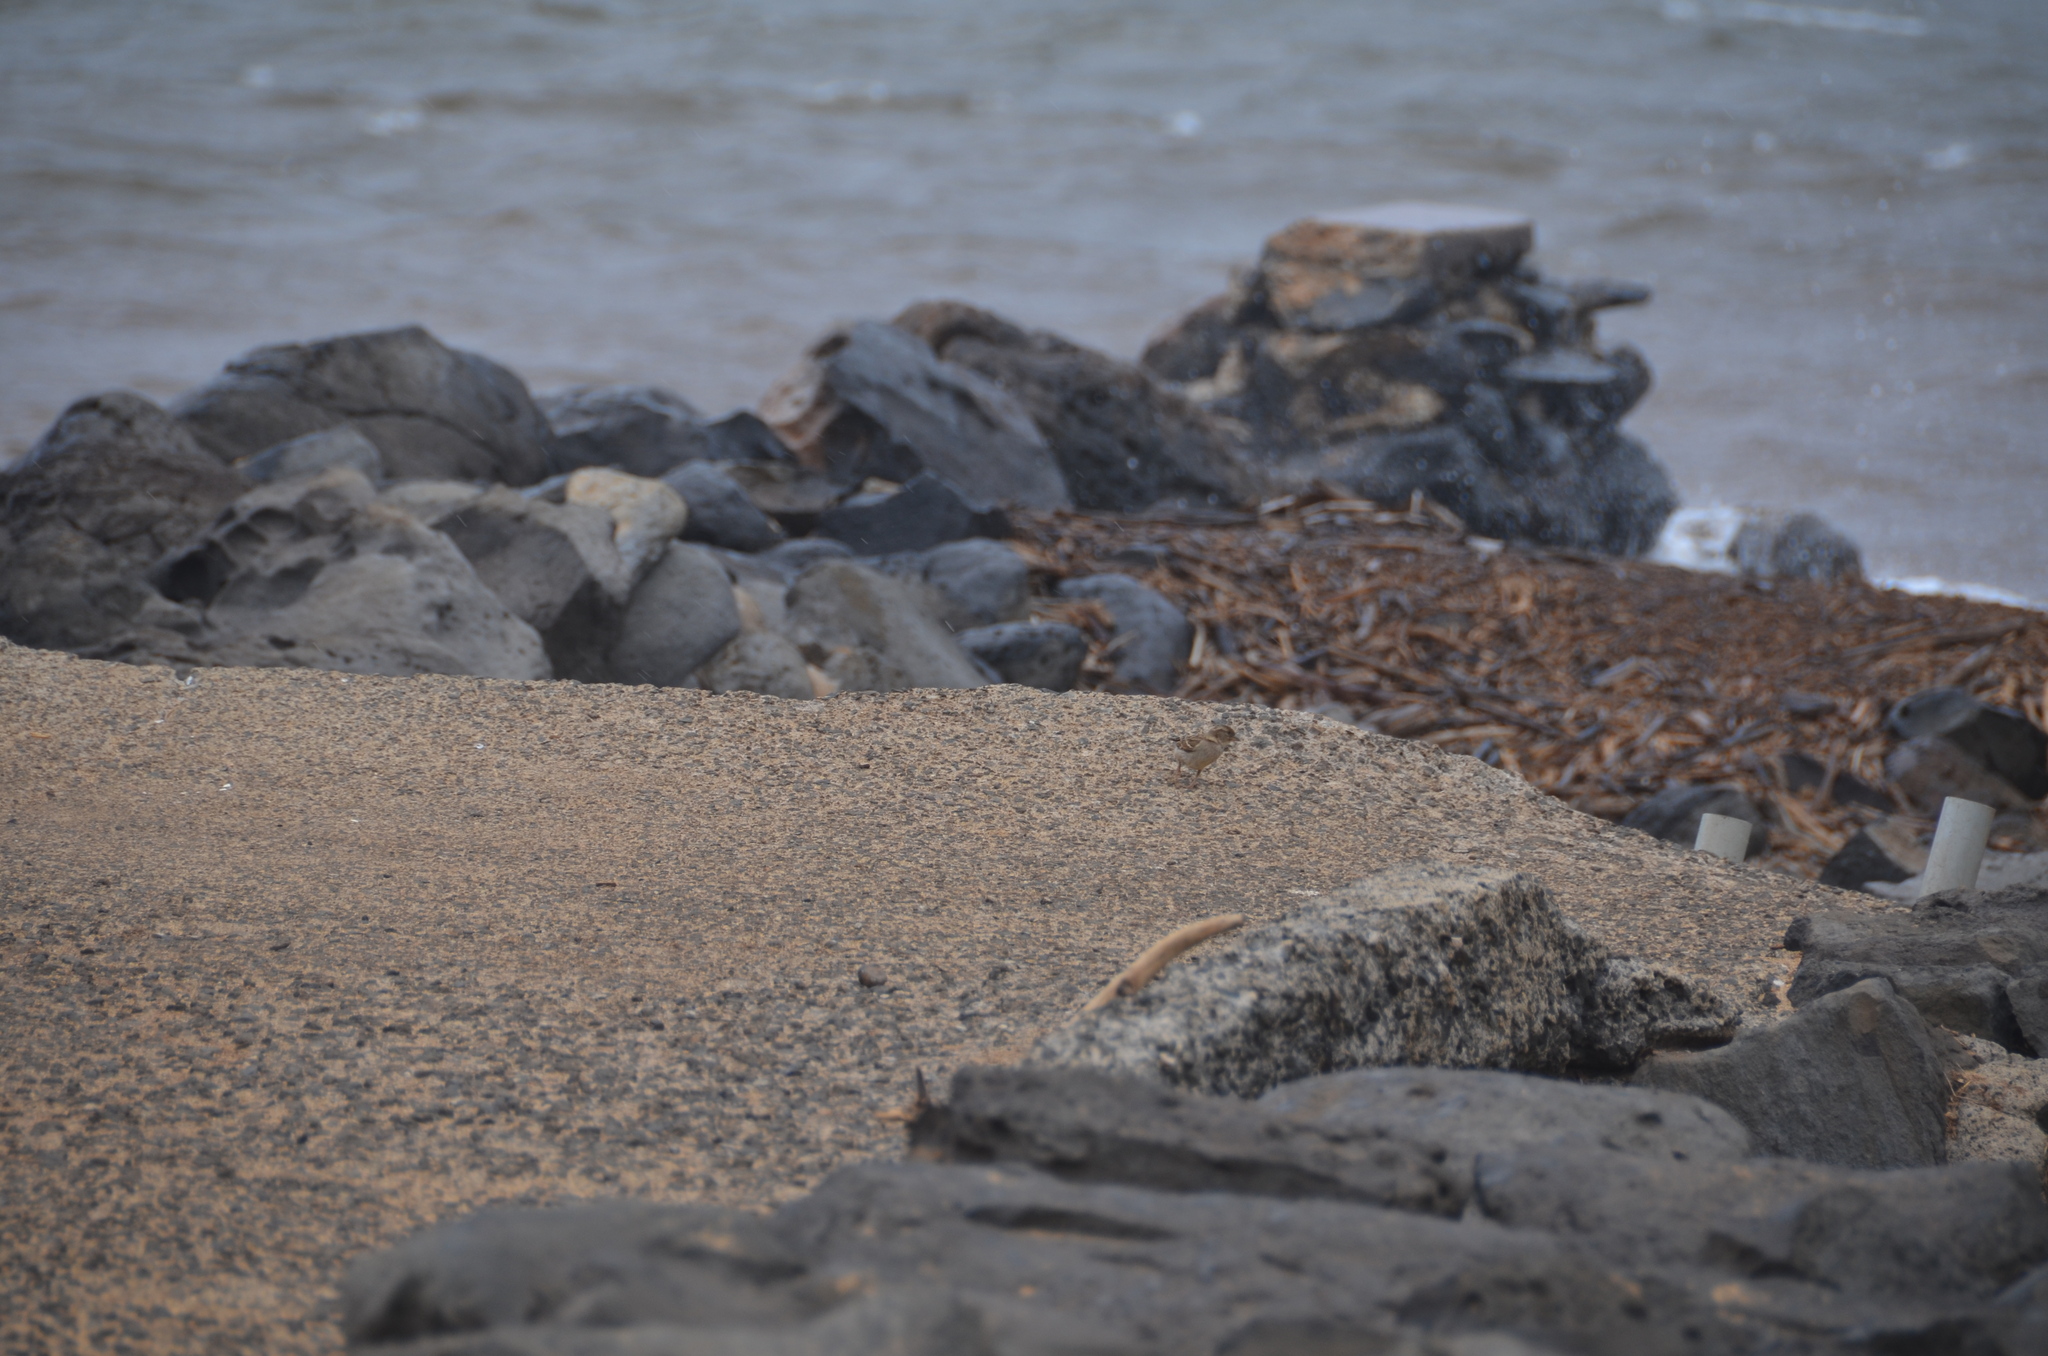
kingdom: Animalia
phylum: Chordata
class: Aves
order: Passeriformes
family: Passeridae
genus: Passer
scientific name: Passer domesticus
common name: House sparrow
